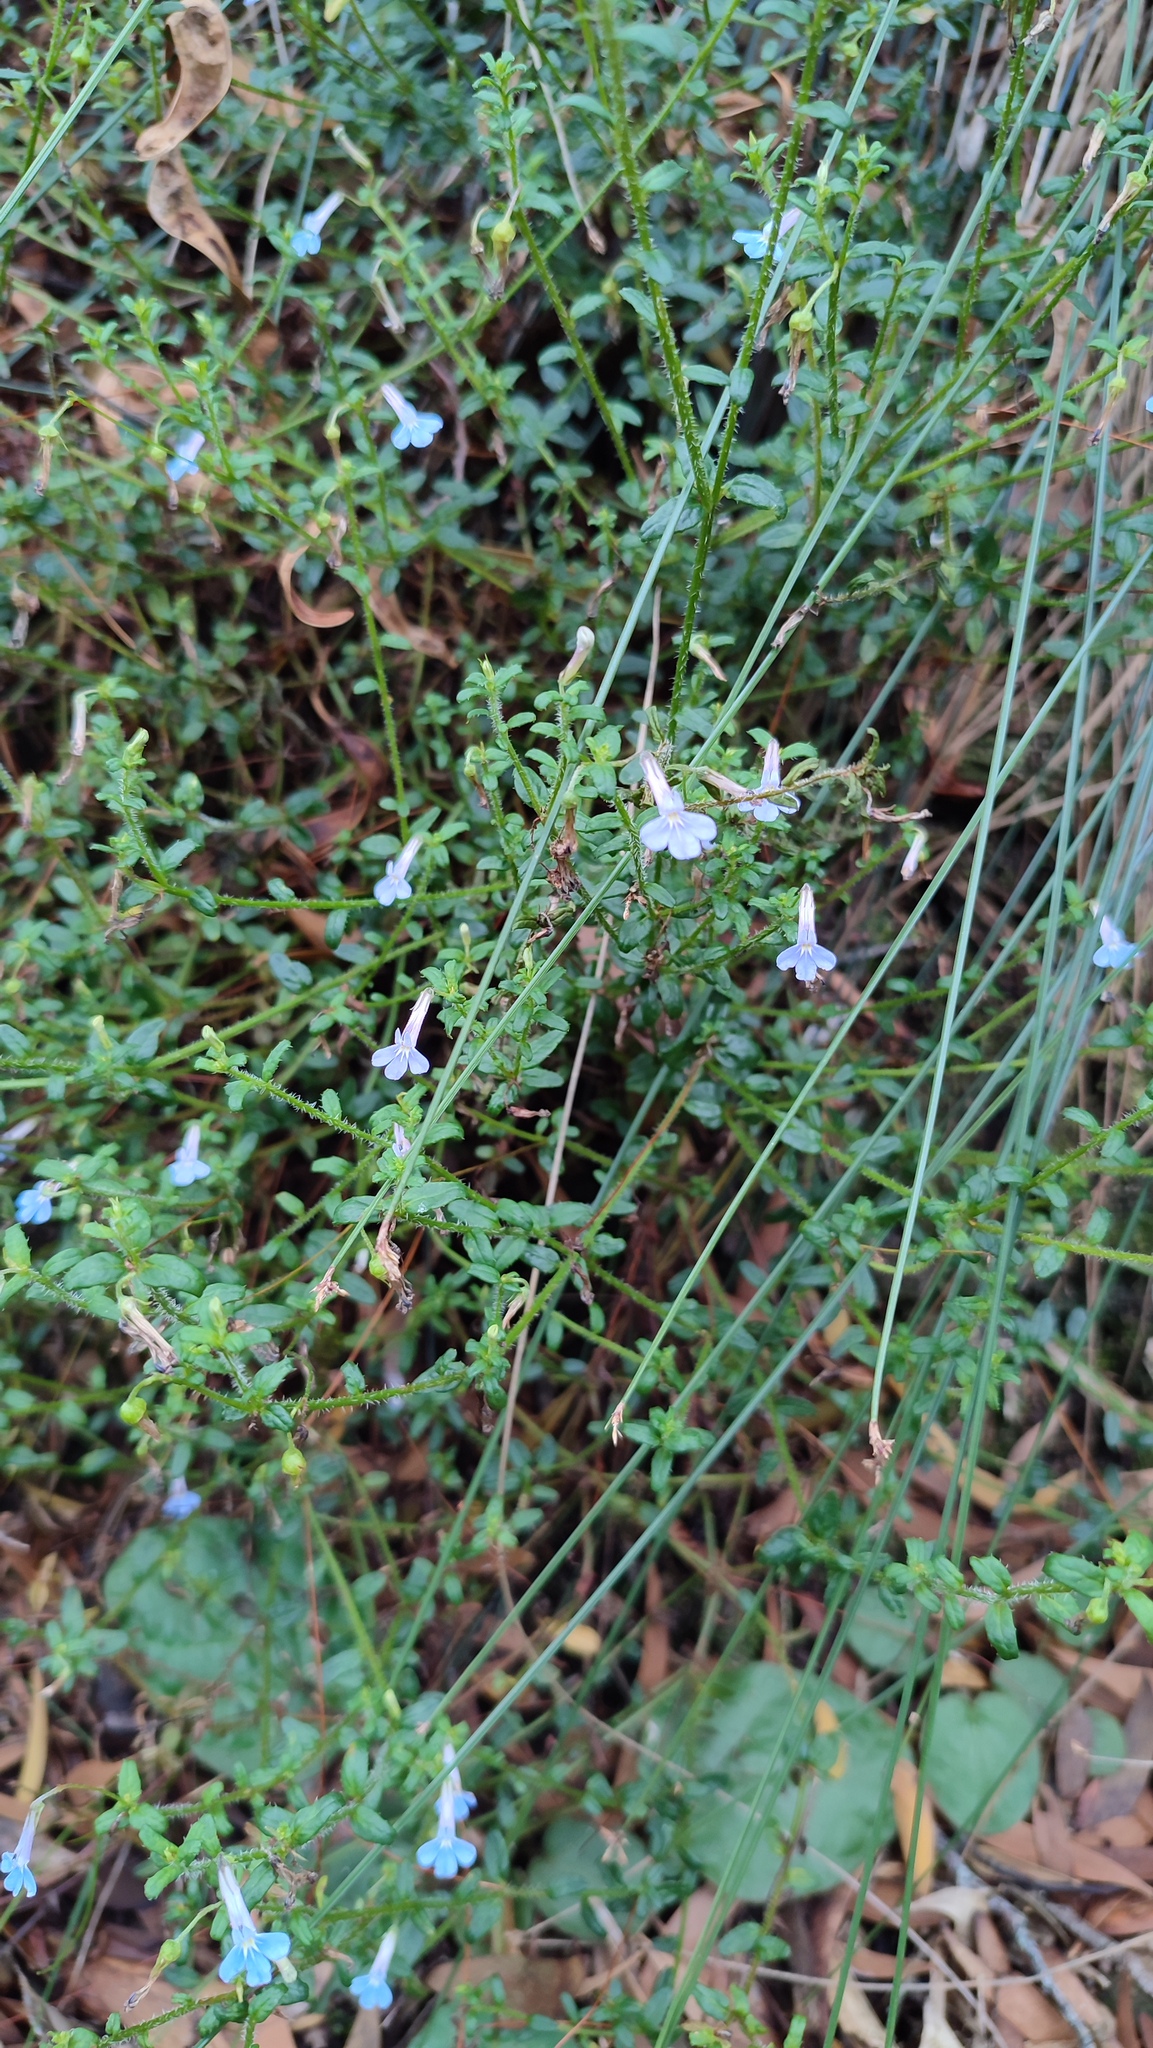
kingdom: Plantae
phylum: Tracheophyta
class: Magnoliopsida
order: Asterales
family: Campanulaceae
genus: Lobelia
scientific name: Lobelia neglecta
